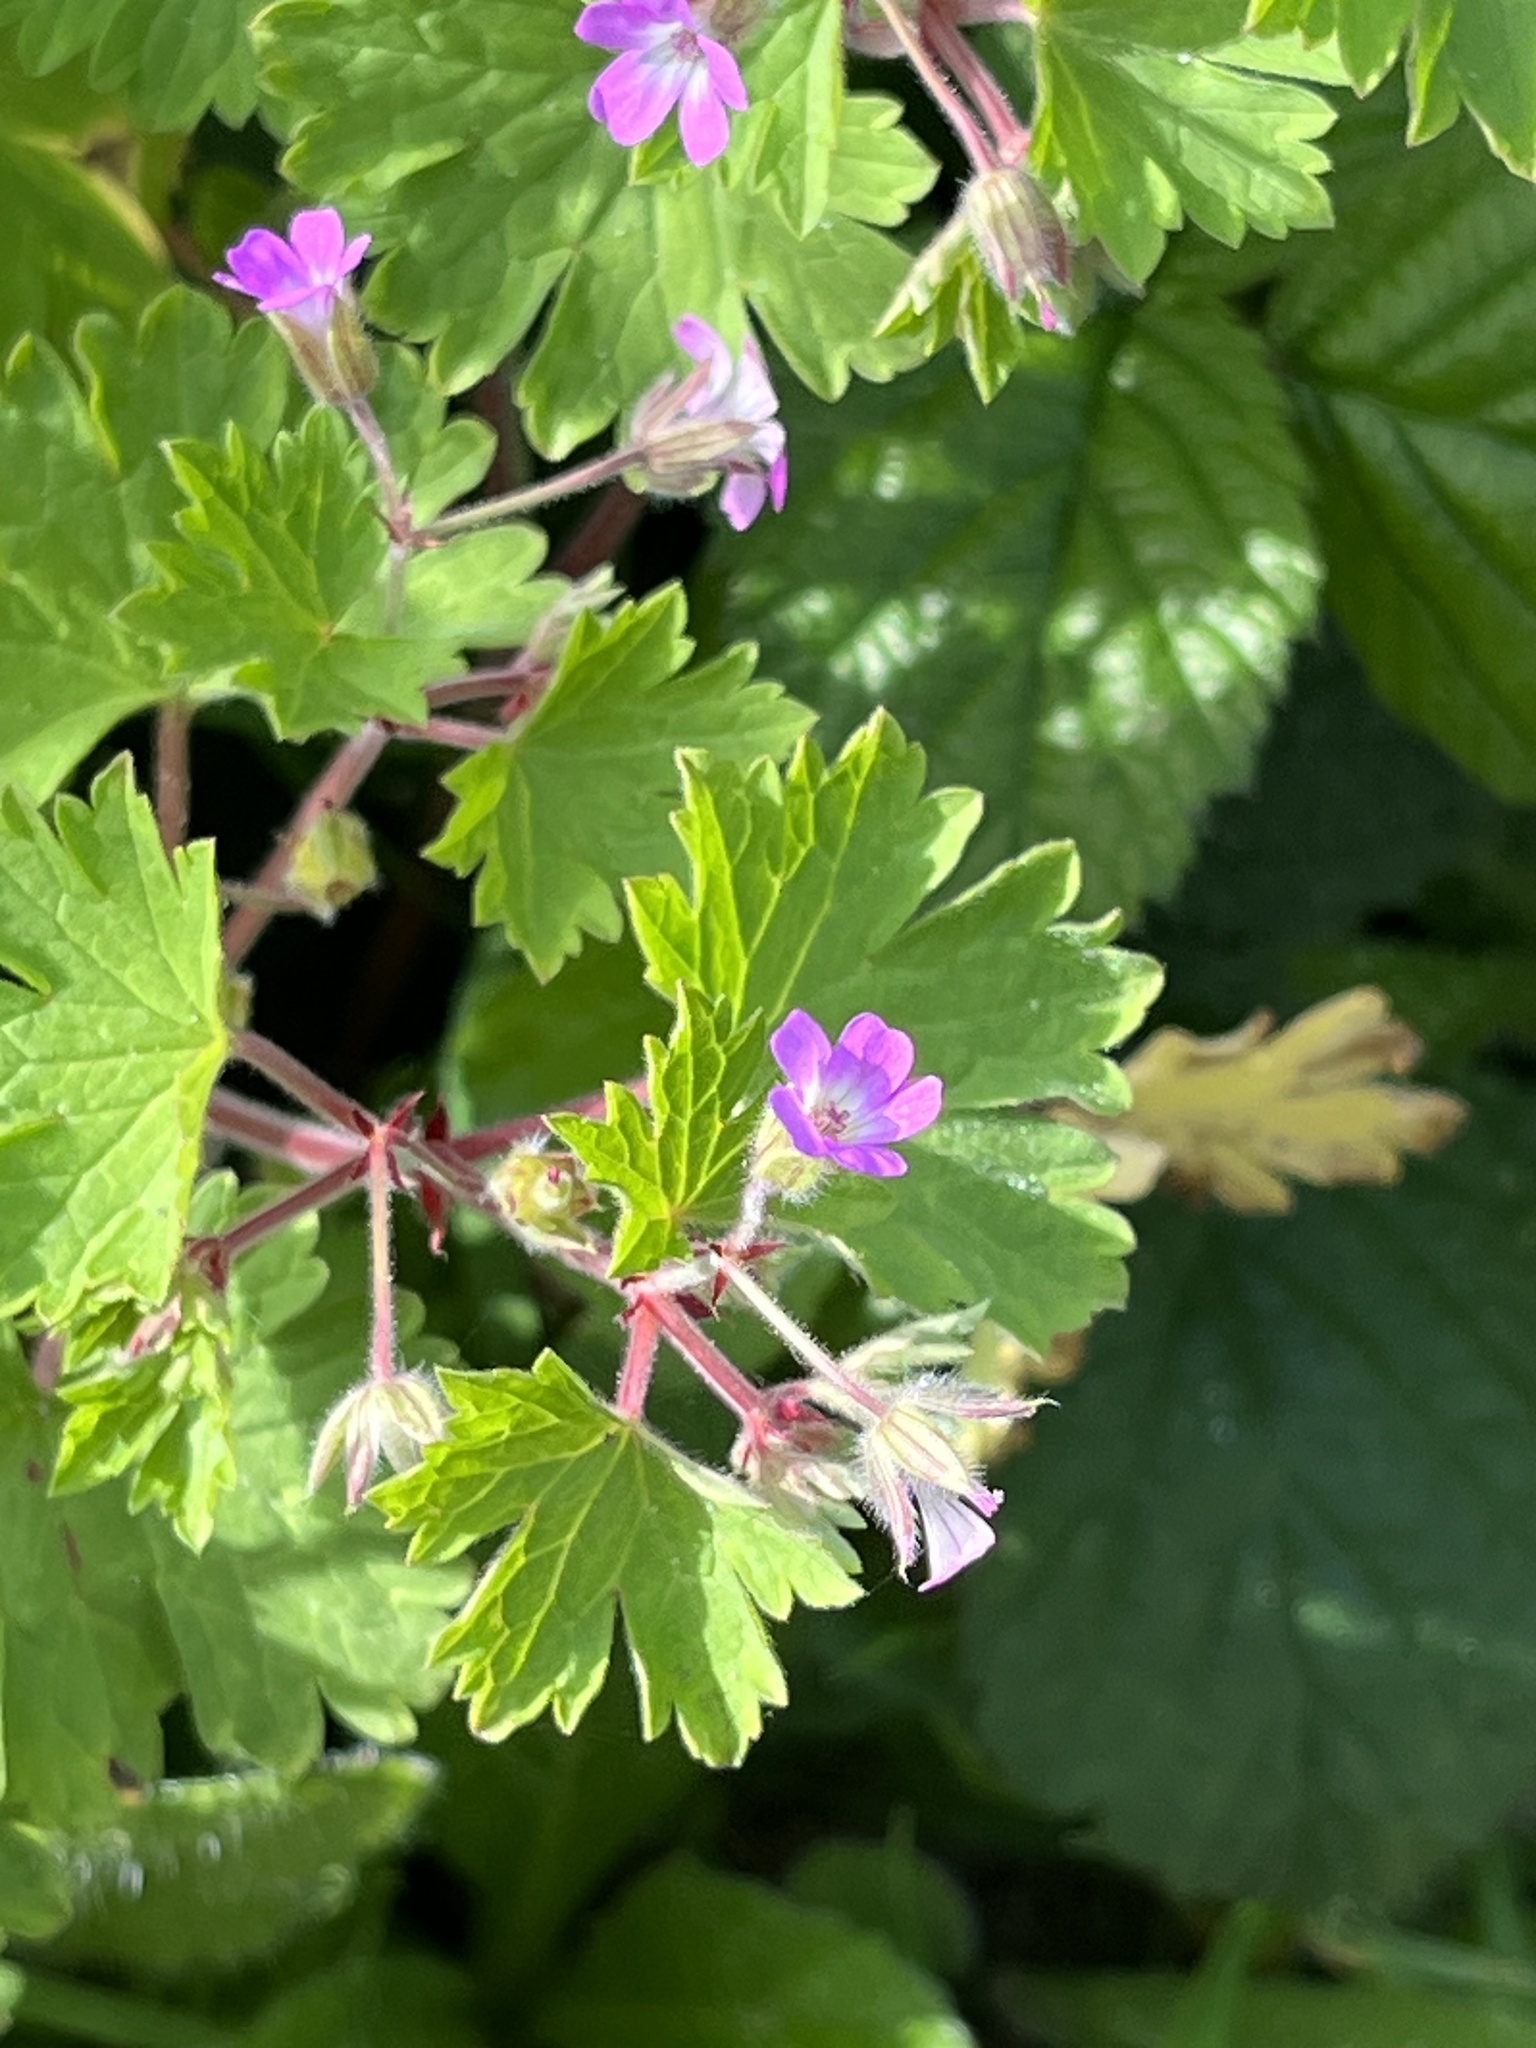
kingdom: Plantae
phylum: Tracheophyta
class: Magnoliopsida
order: Geraniales
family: Geraniaceae
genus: Geranium
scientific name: Geranium rotundifolium
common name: Round-leaved crane's-bill
